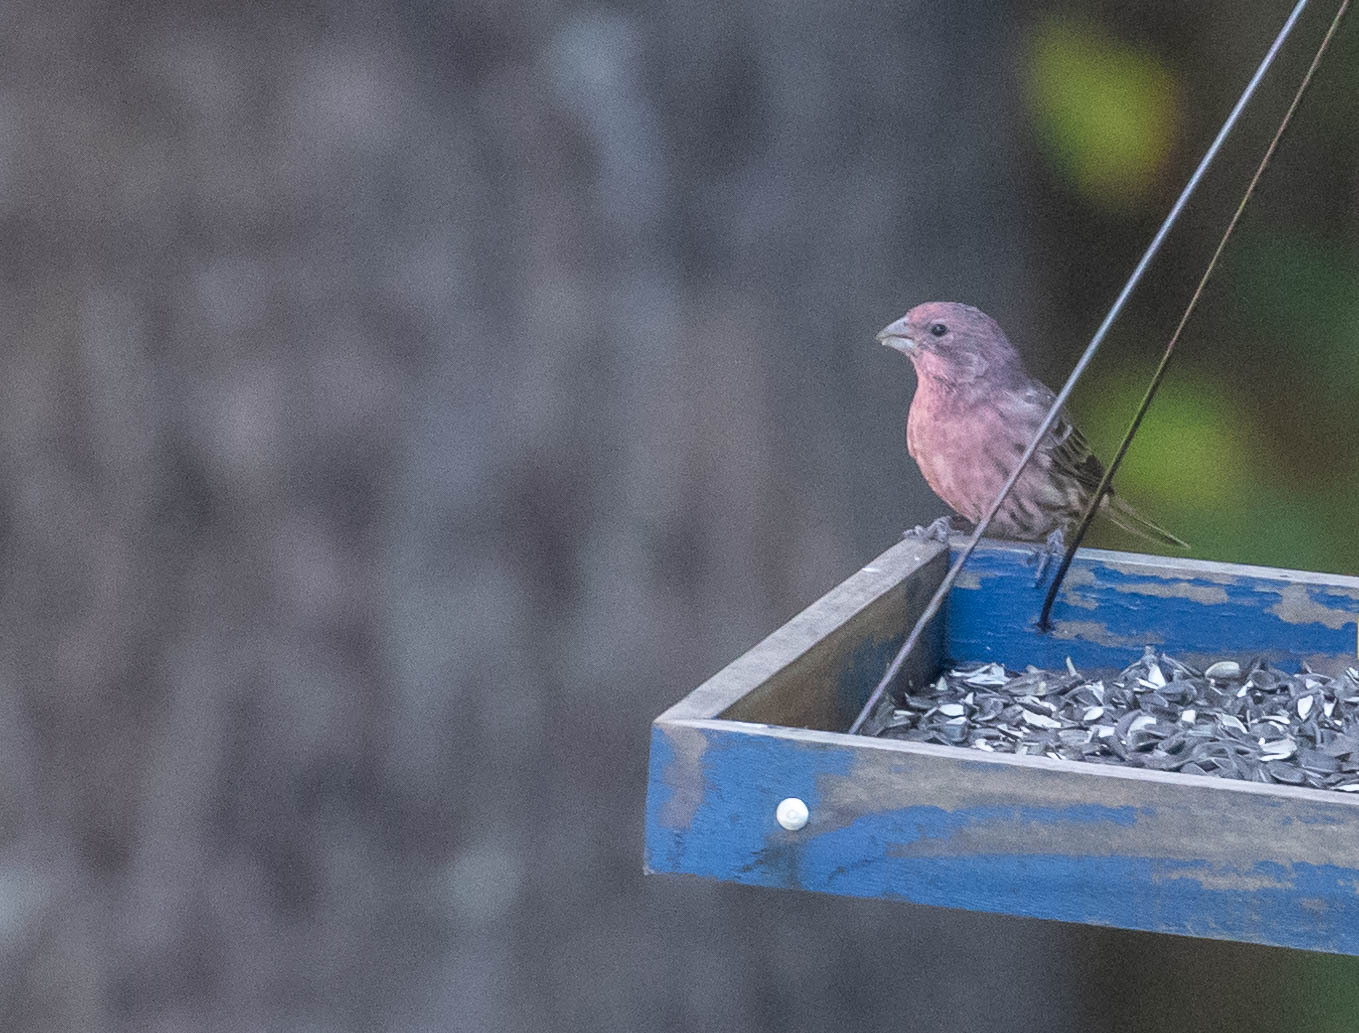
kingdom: Animalia
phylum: Chordata
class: Aves
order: Passeriformes
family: Fringillidae
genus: Haemorhous
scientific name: Haemorhous mexicanus
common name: House finch
